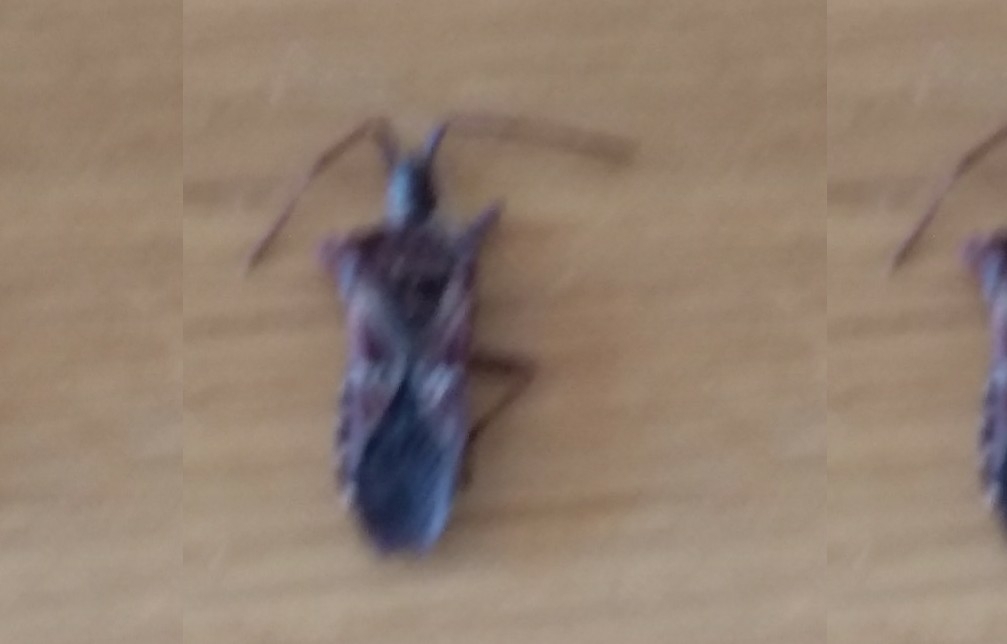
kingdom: Animalia
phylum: Arthropoda
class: Insecta
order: Hemiptera
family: Coreidae
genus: Leptoglossus
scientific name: Leptoglossus occidentalis
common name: Western conifer-seed bug
